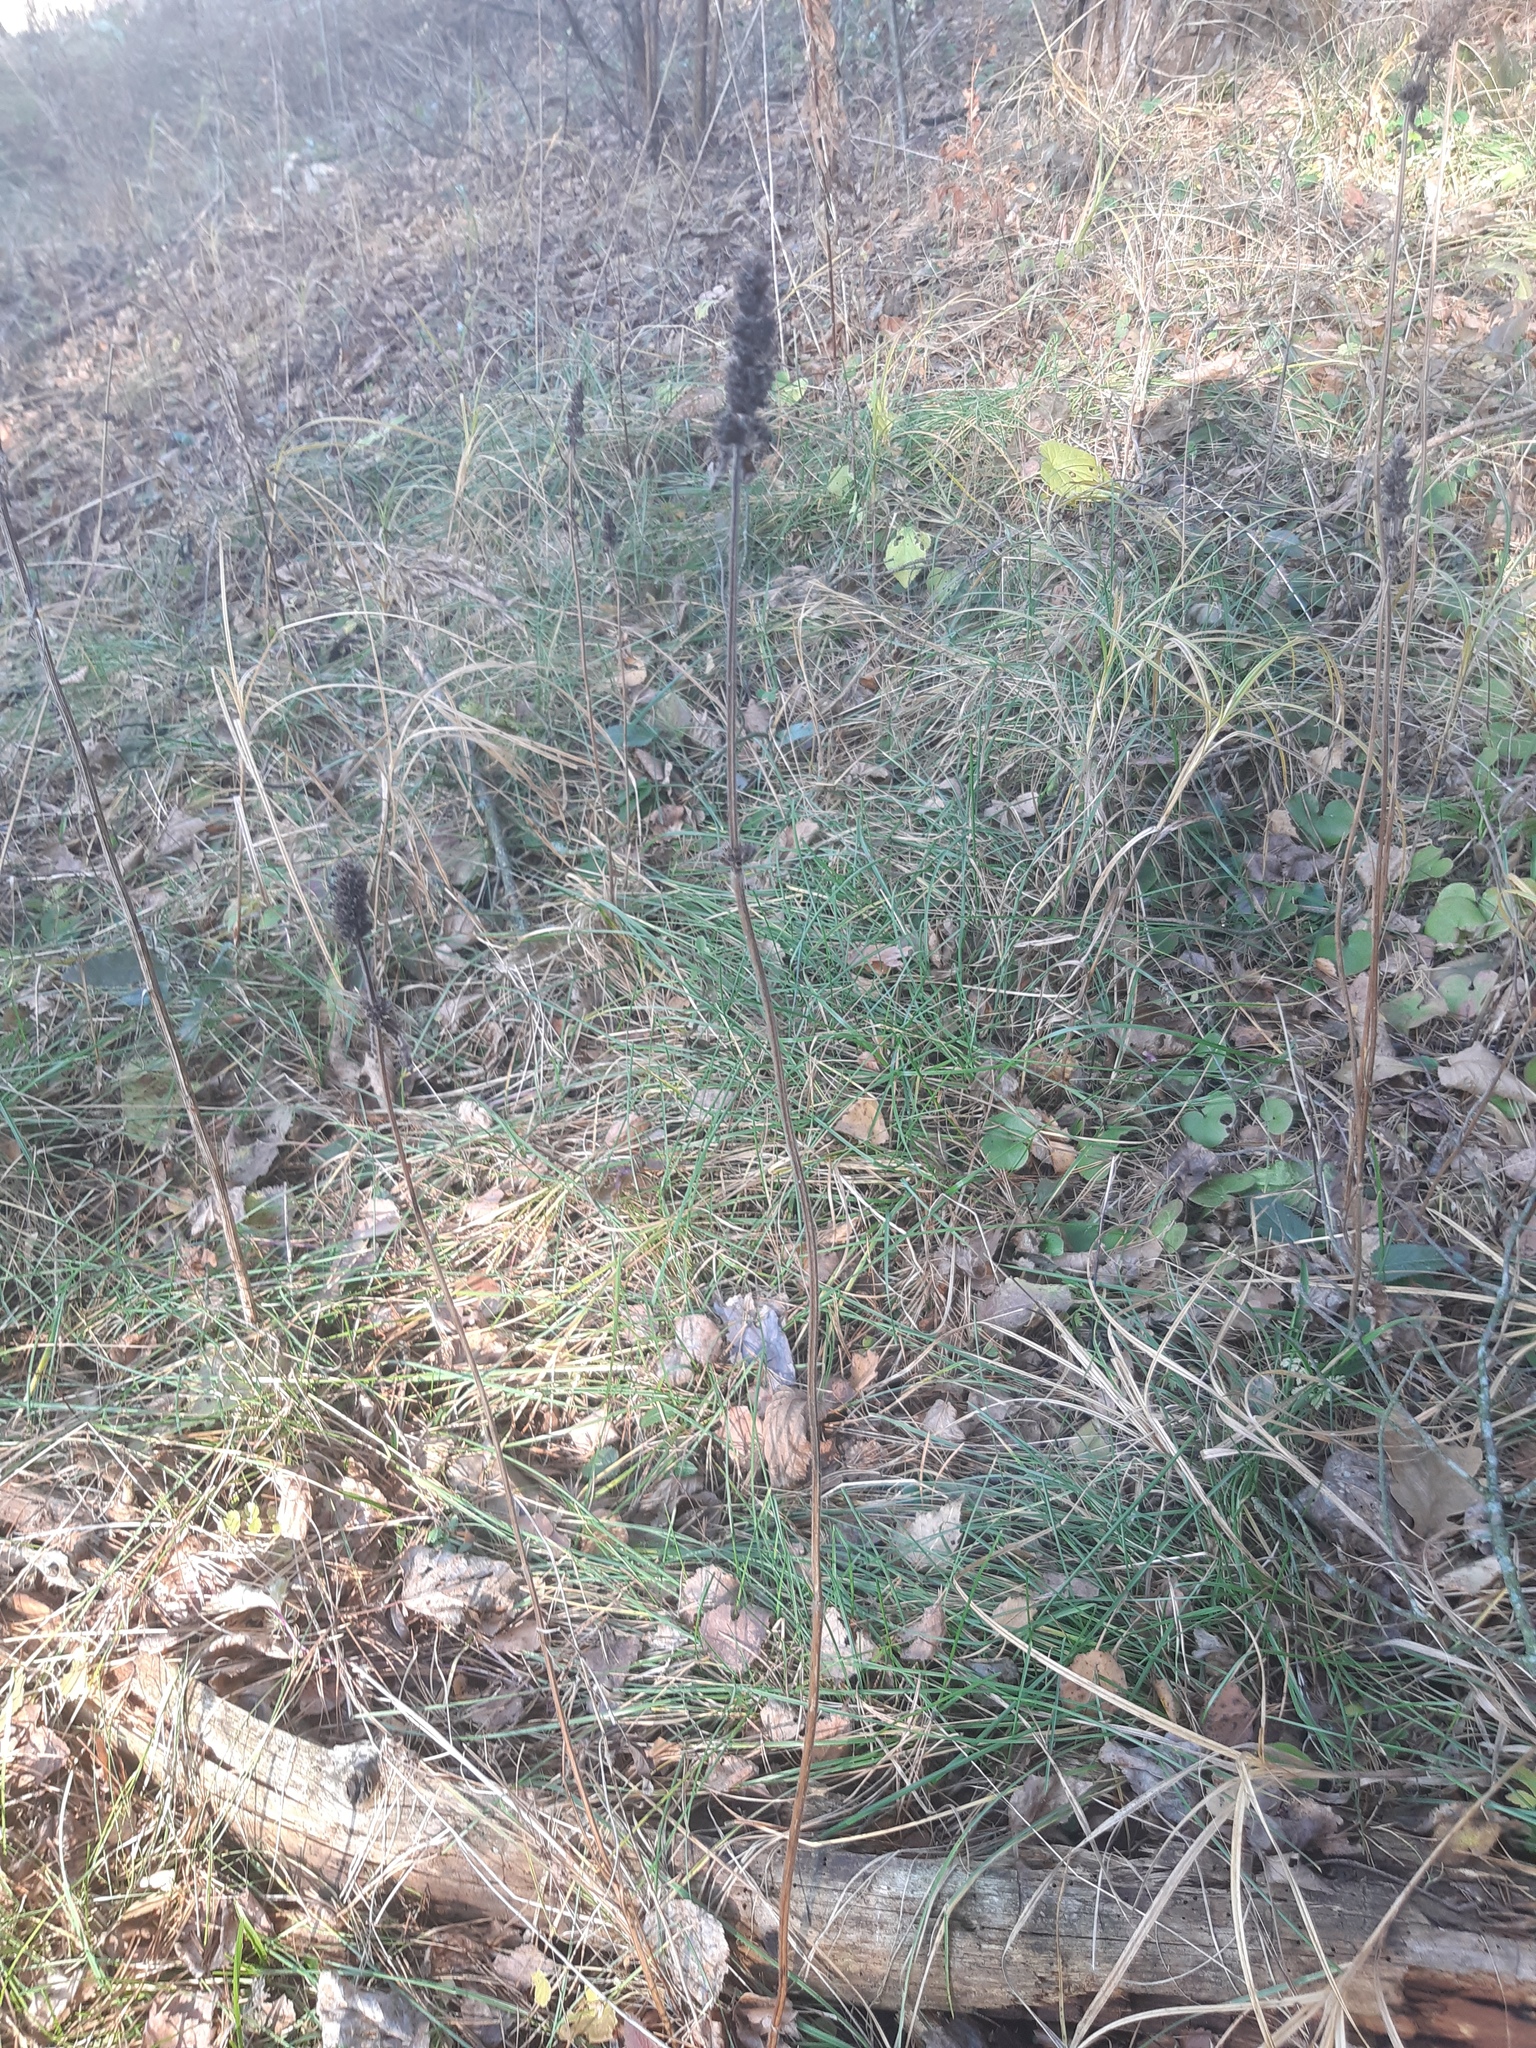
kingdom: Plantae
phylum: Tracheophyta
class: Magnoliopsida
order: Lamiales
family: Lamiaceae
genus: Betonica
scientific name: Betonica officinalis
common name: Bishop's-wort
